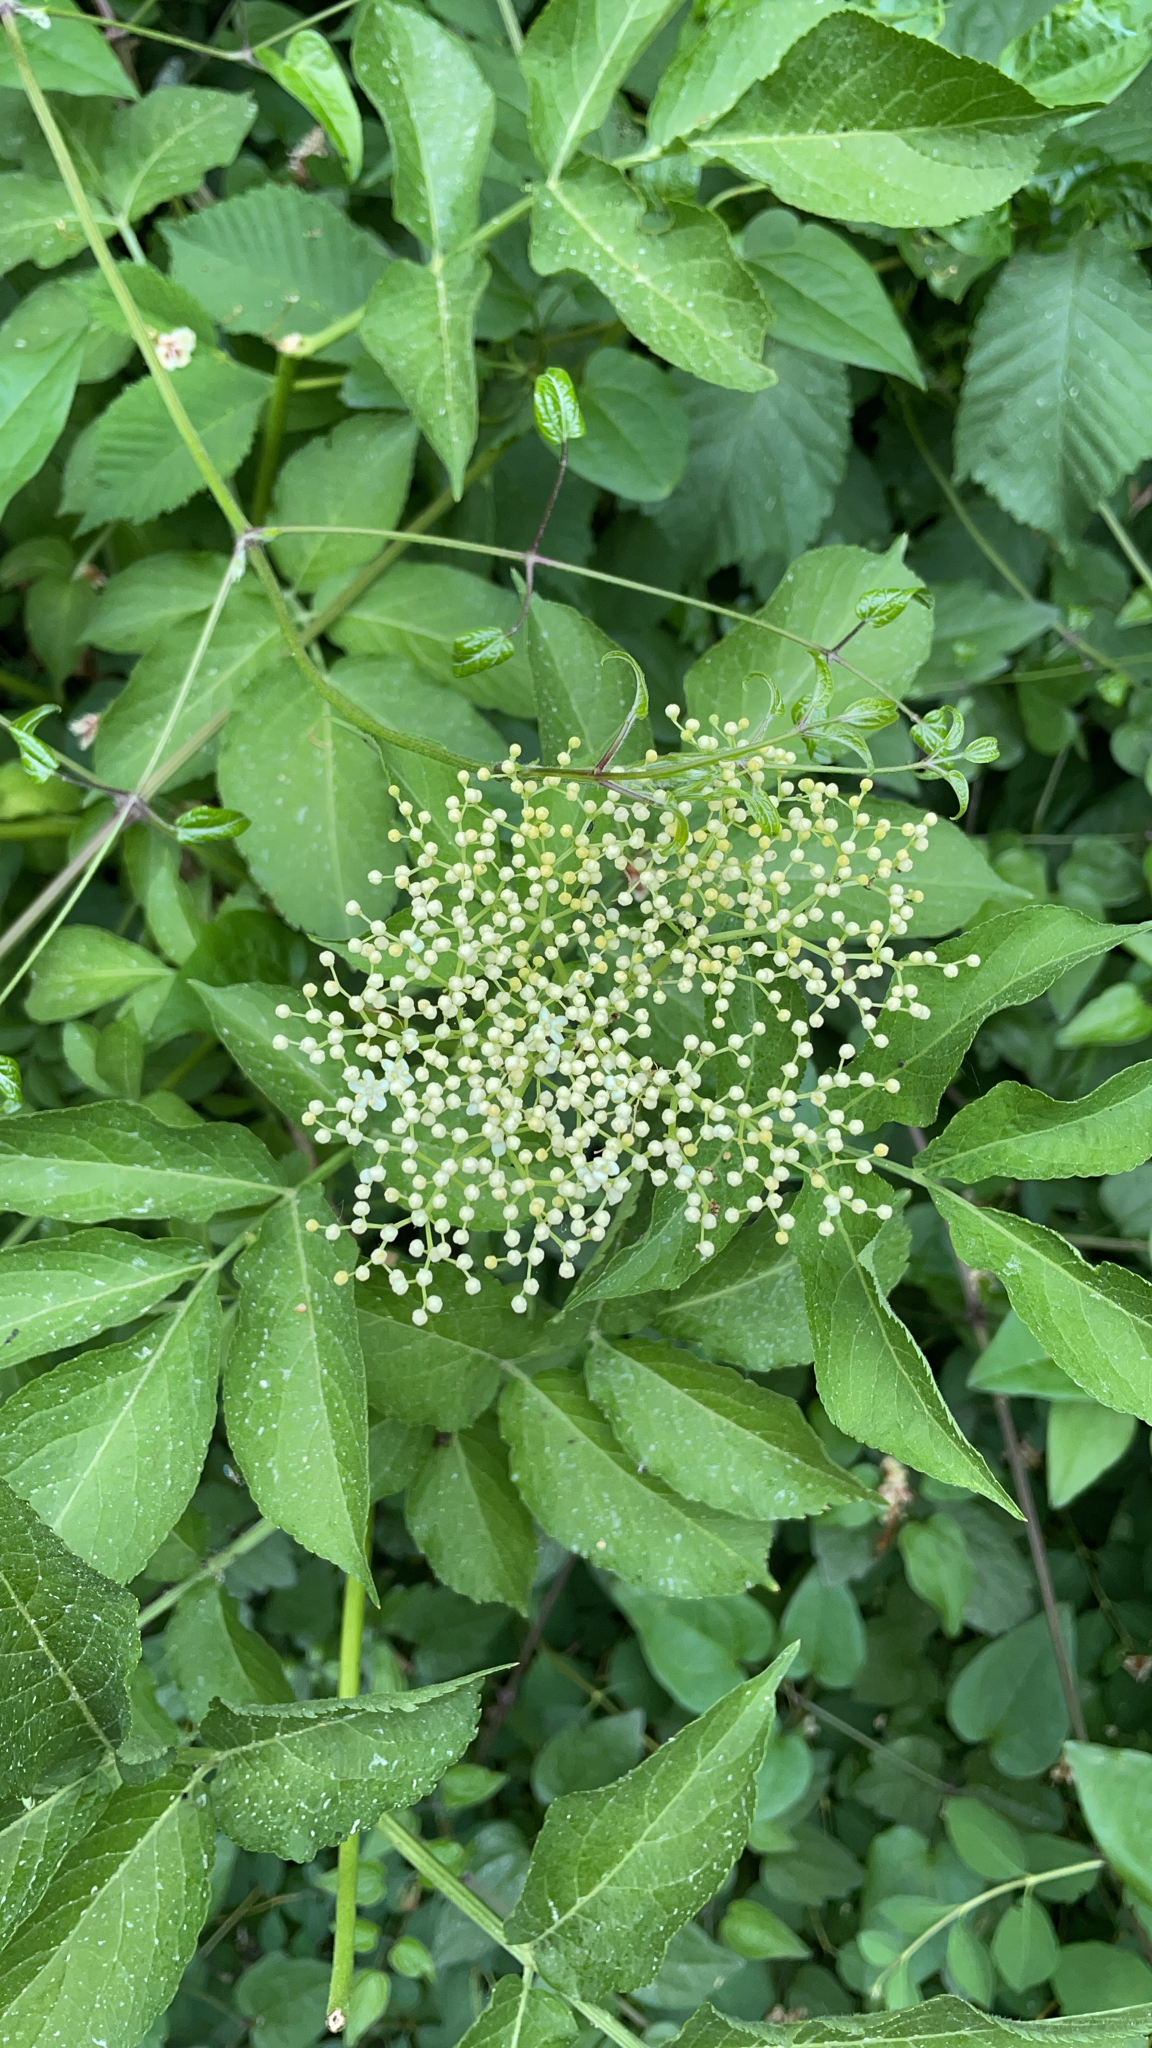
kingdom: Plantae
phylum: Tracheophyta
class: Magnoliopsida
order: Dipsacales
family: Viburnaceae
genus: Sambucus
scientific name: Sambucus nigra
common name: Elder
